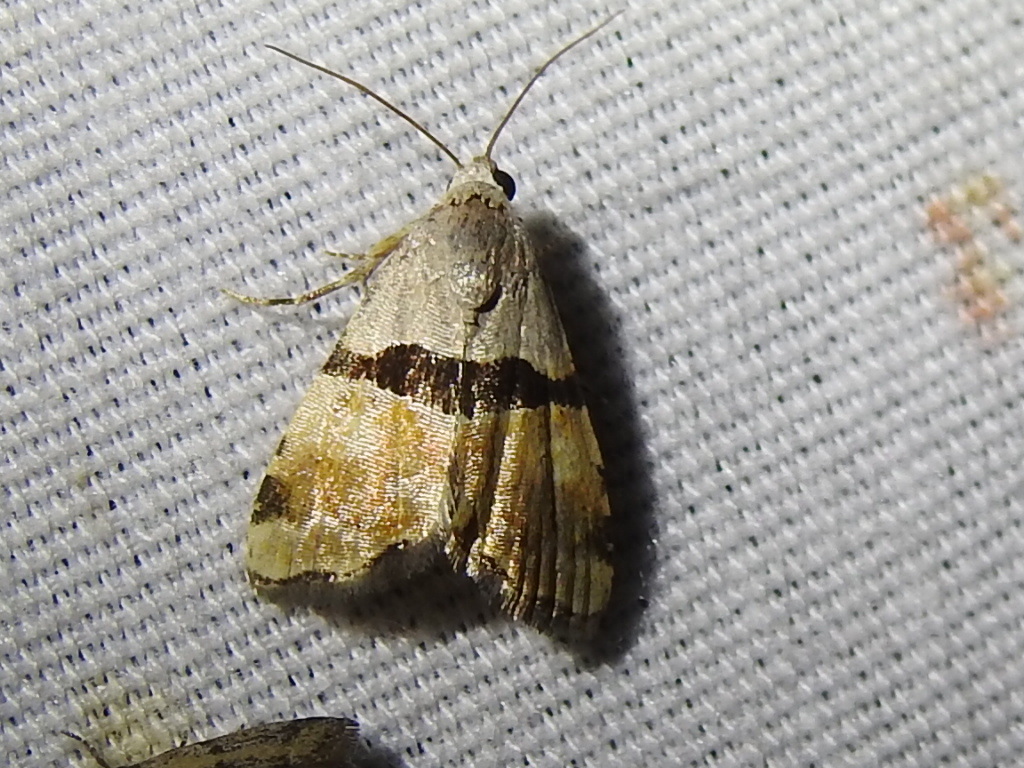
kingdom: Animalia
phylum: Arthropoda
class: Insecta
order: Lepidoptera
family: Noctuidae
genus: Cobubatha
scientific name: Cobubatha lixiva
